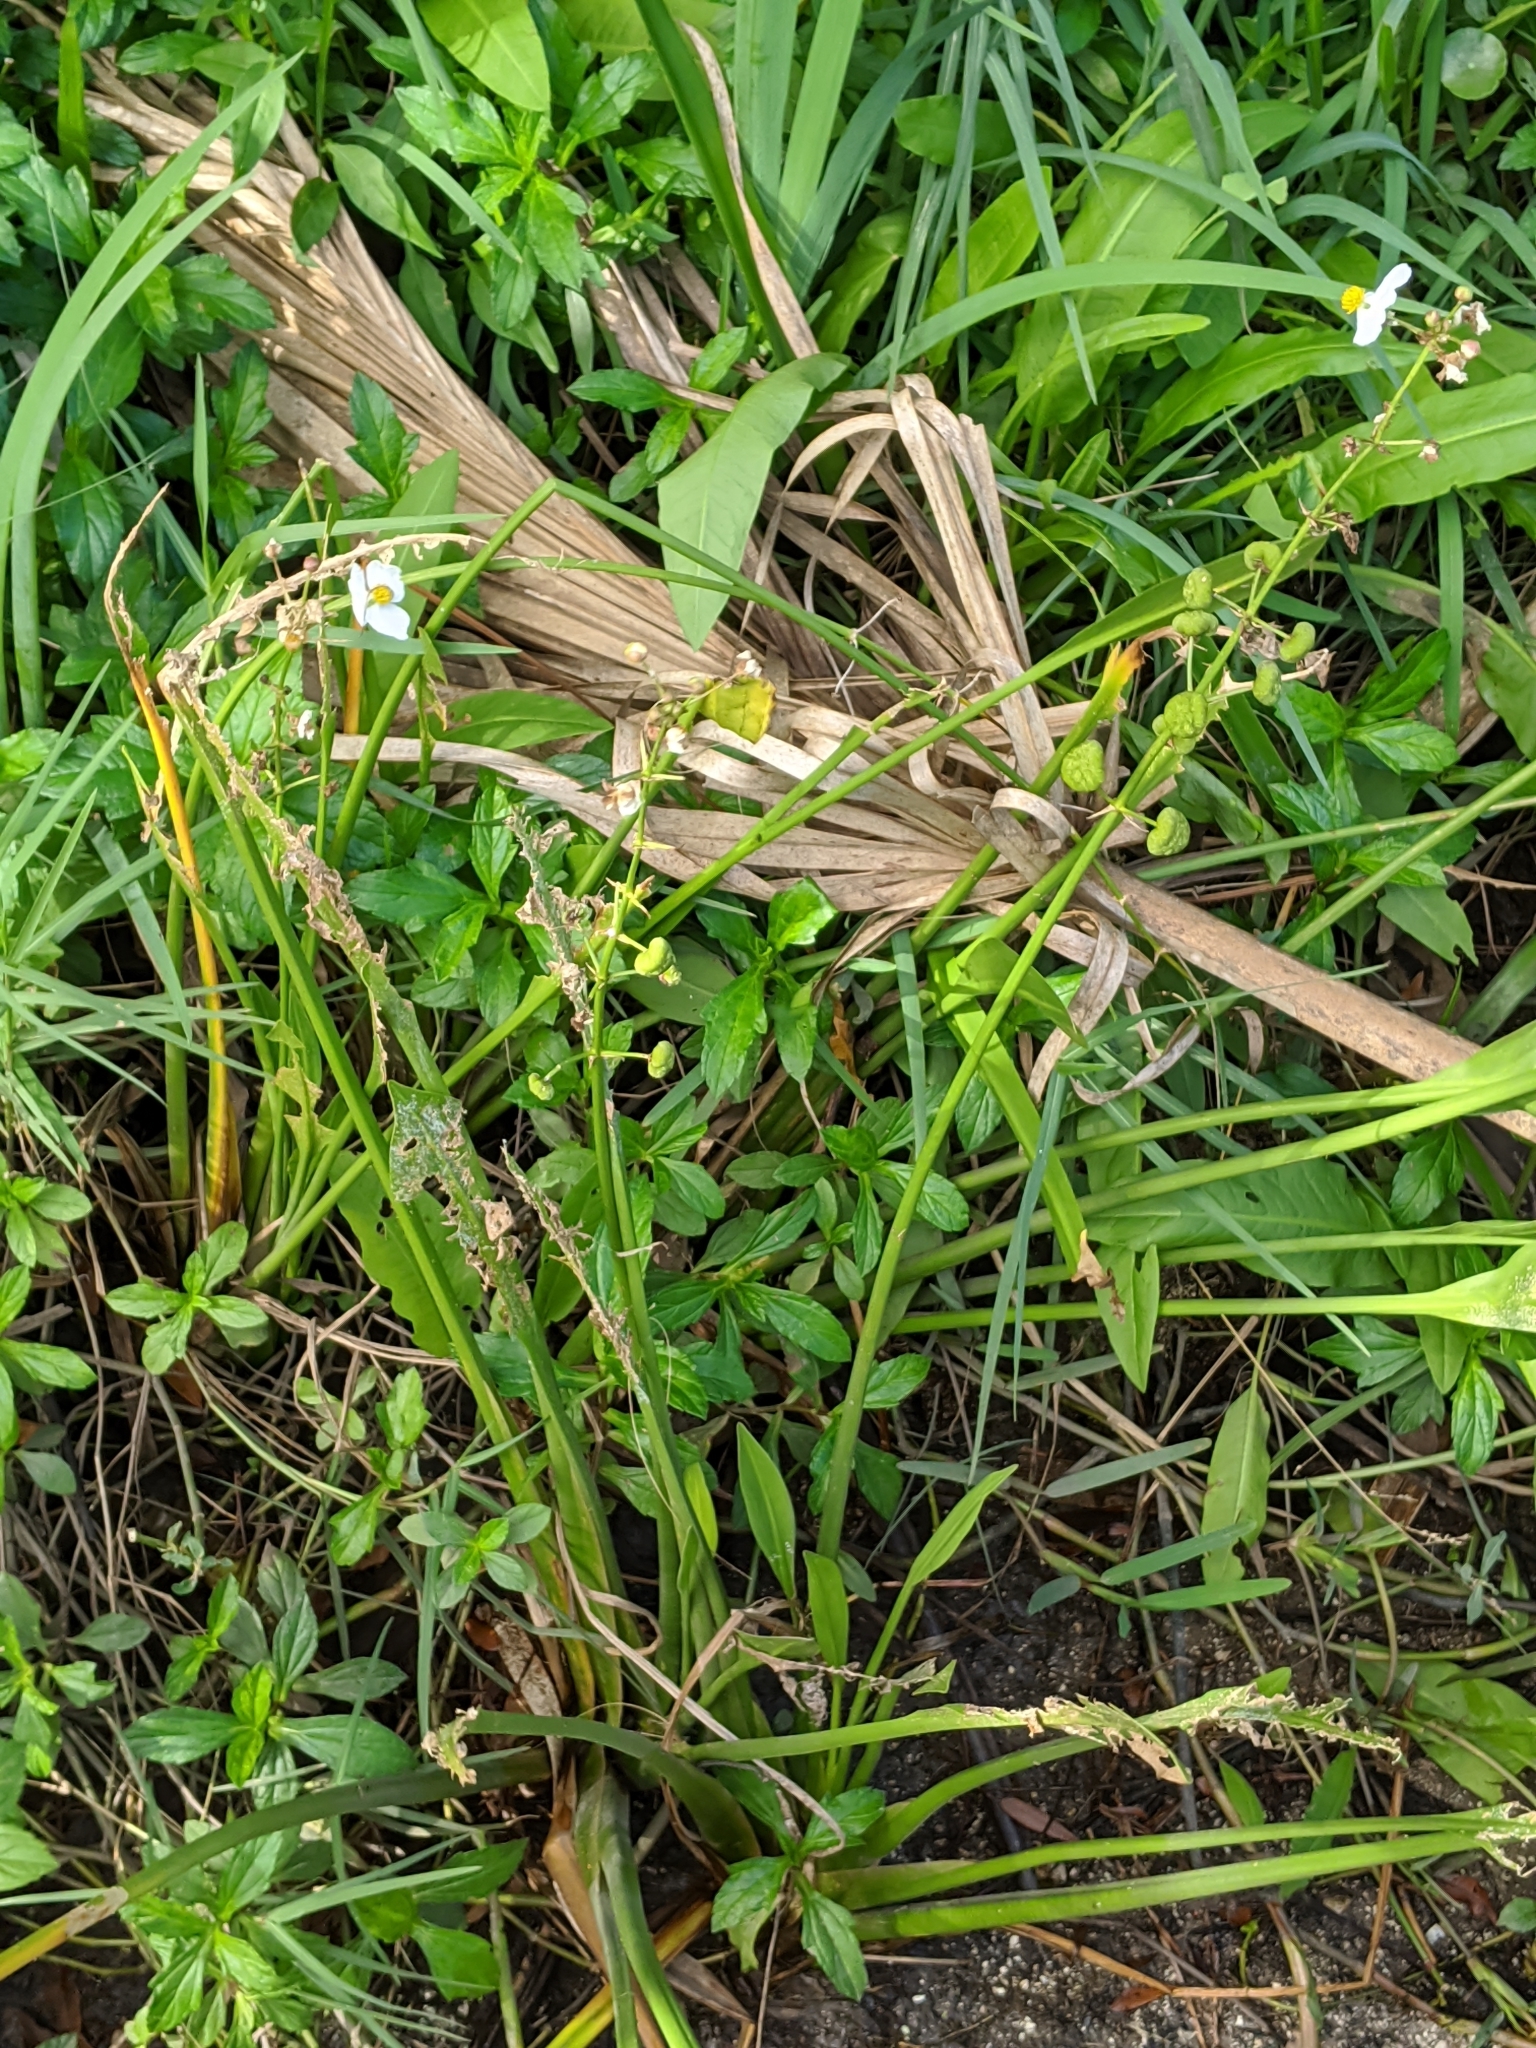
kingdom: Plantae
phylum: Tracheophyta
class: Liliopsida
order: Alismatales
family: Alismataceae
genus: Sagittaria
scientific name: Sagittaria lancifolia
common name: Lance-leaf arrowhead
